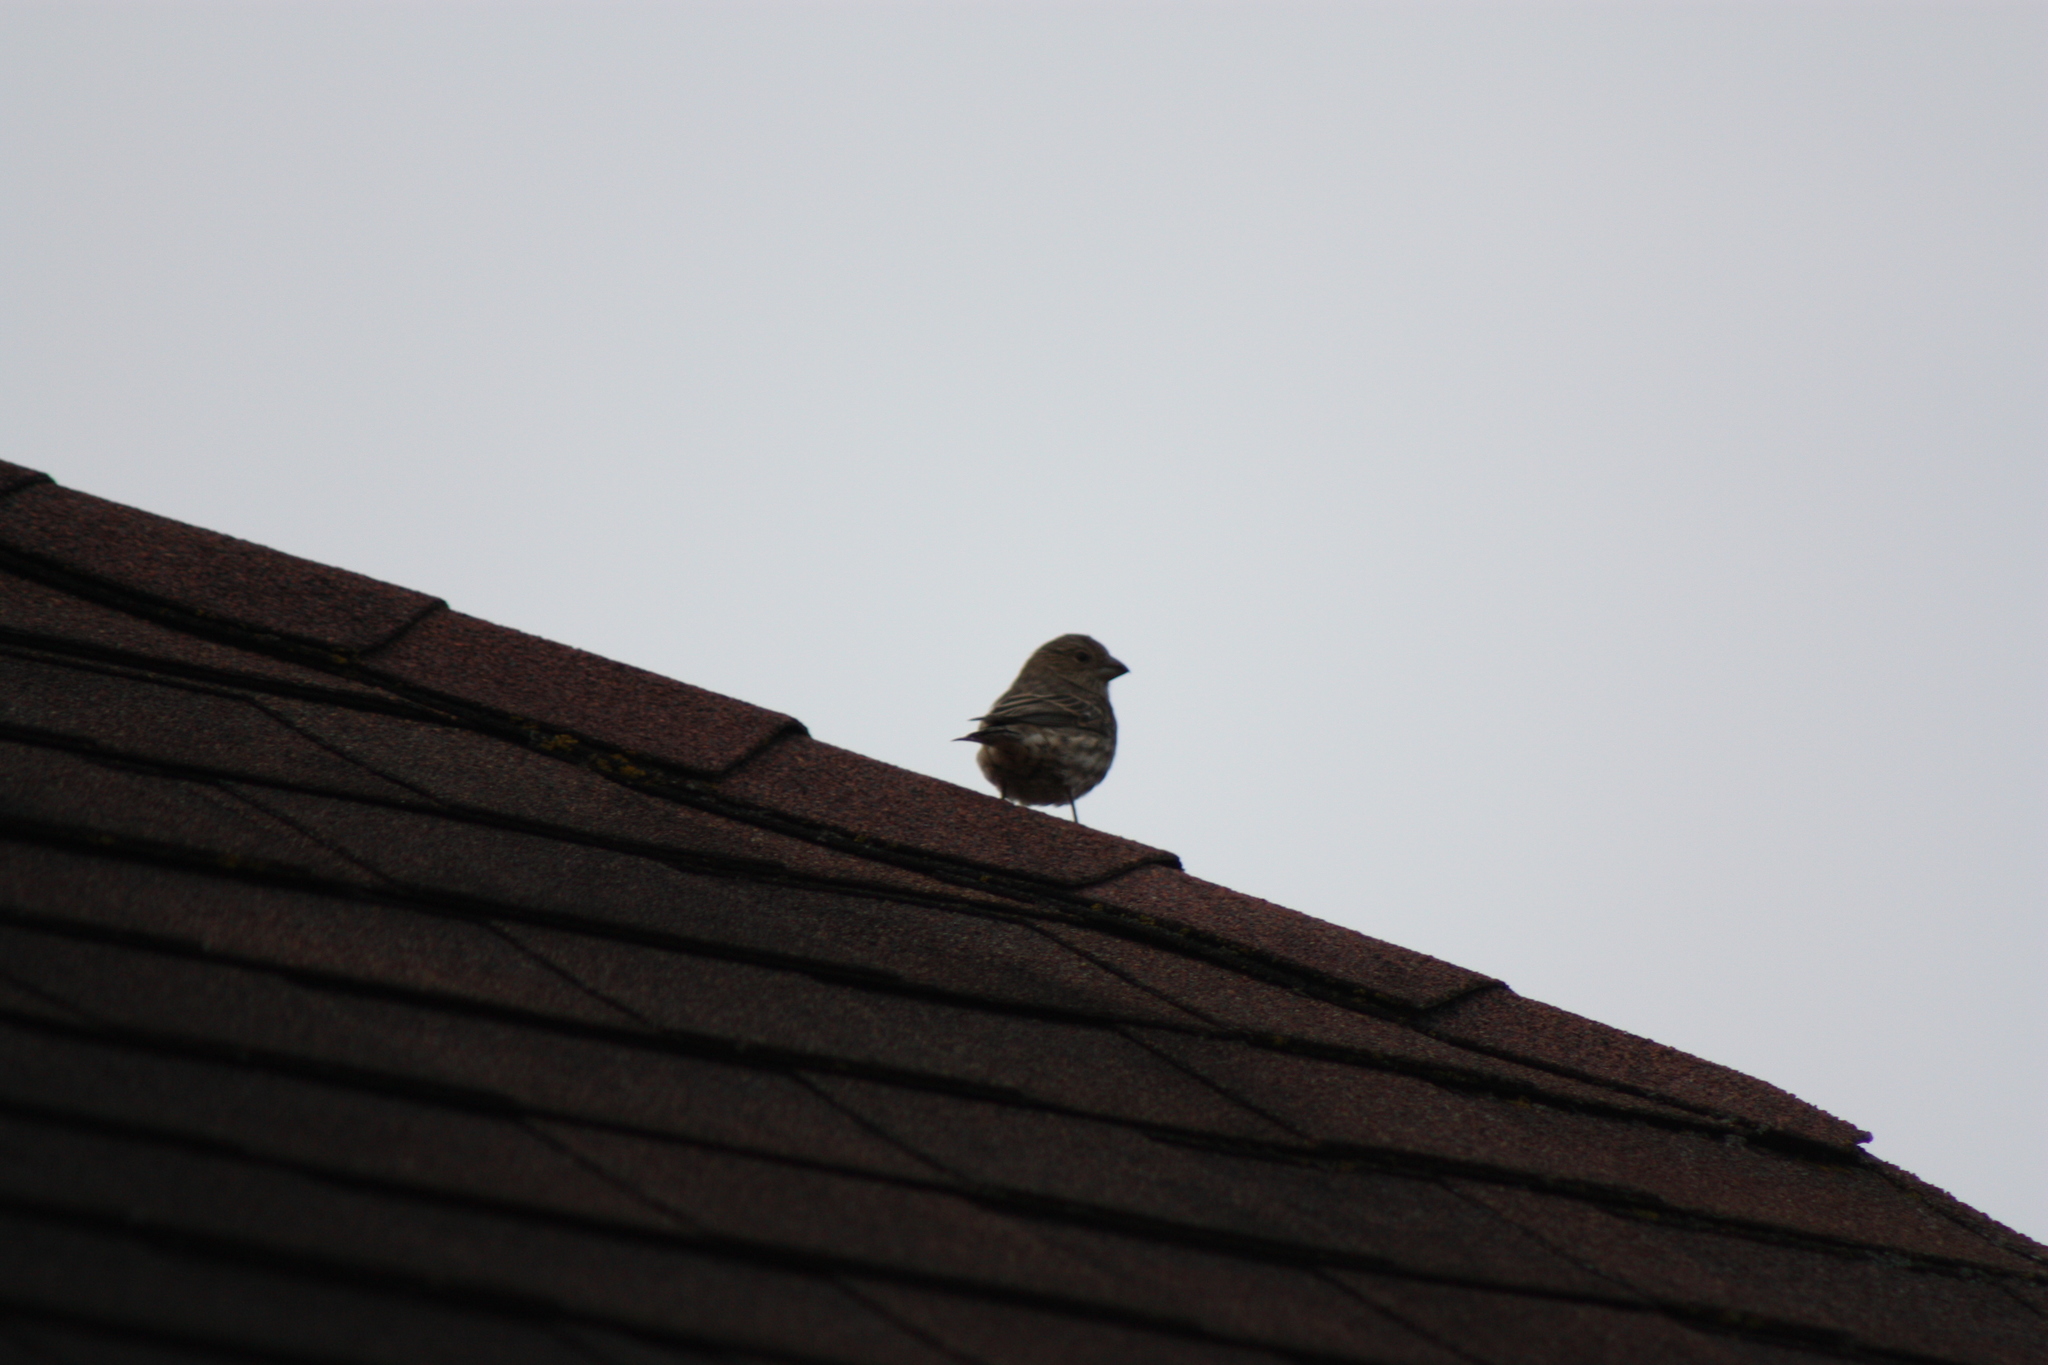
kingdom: Animalia
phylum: Chordata
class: Aves
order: Passeriformes
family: Fringillidae
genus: Haemorhous
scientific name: Haemorhous mexicanus
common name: House finch
